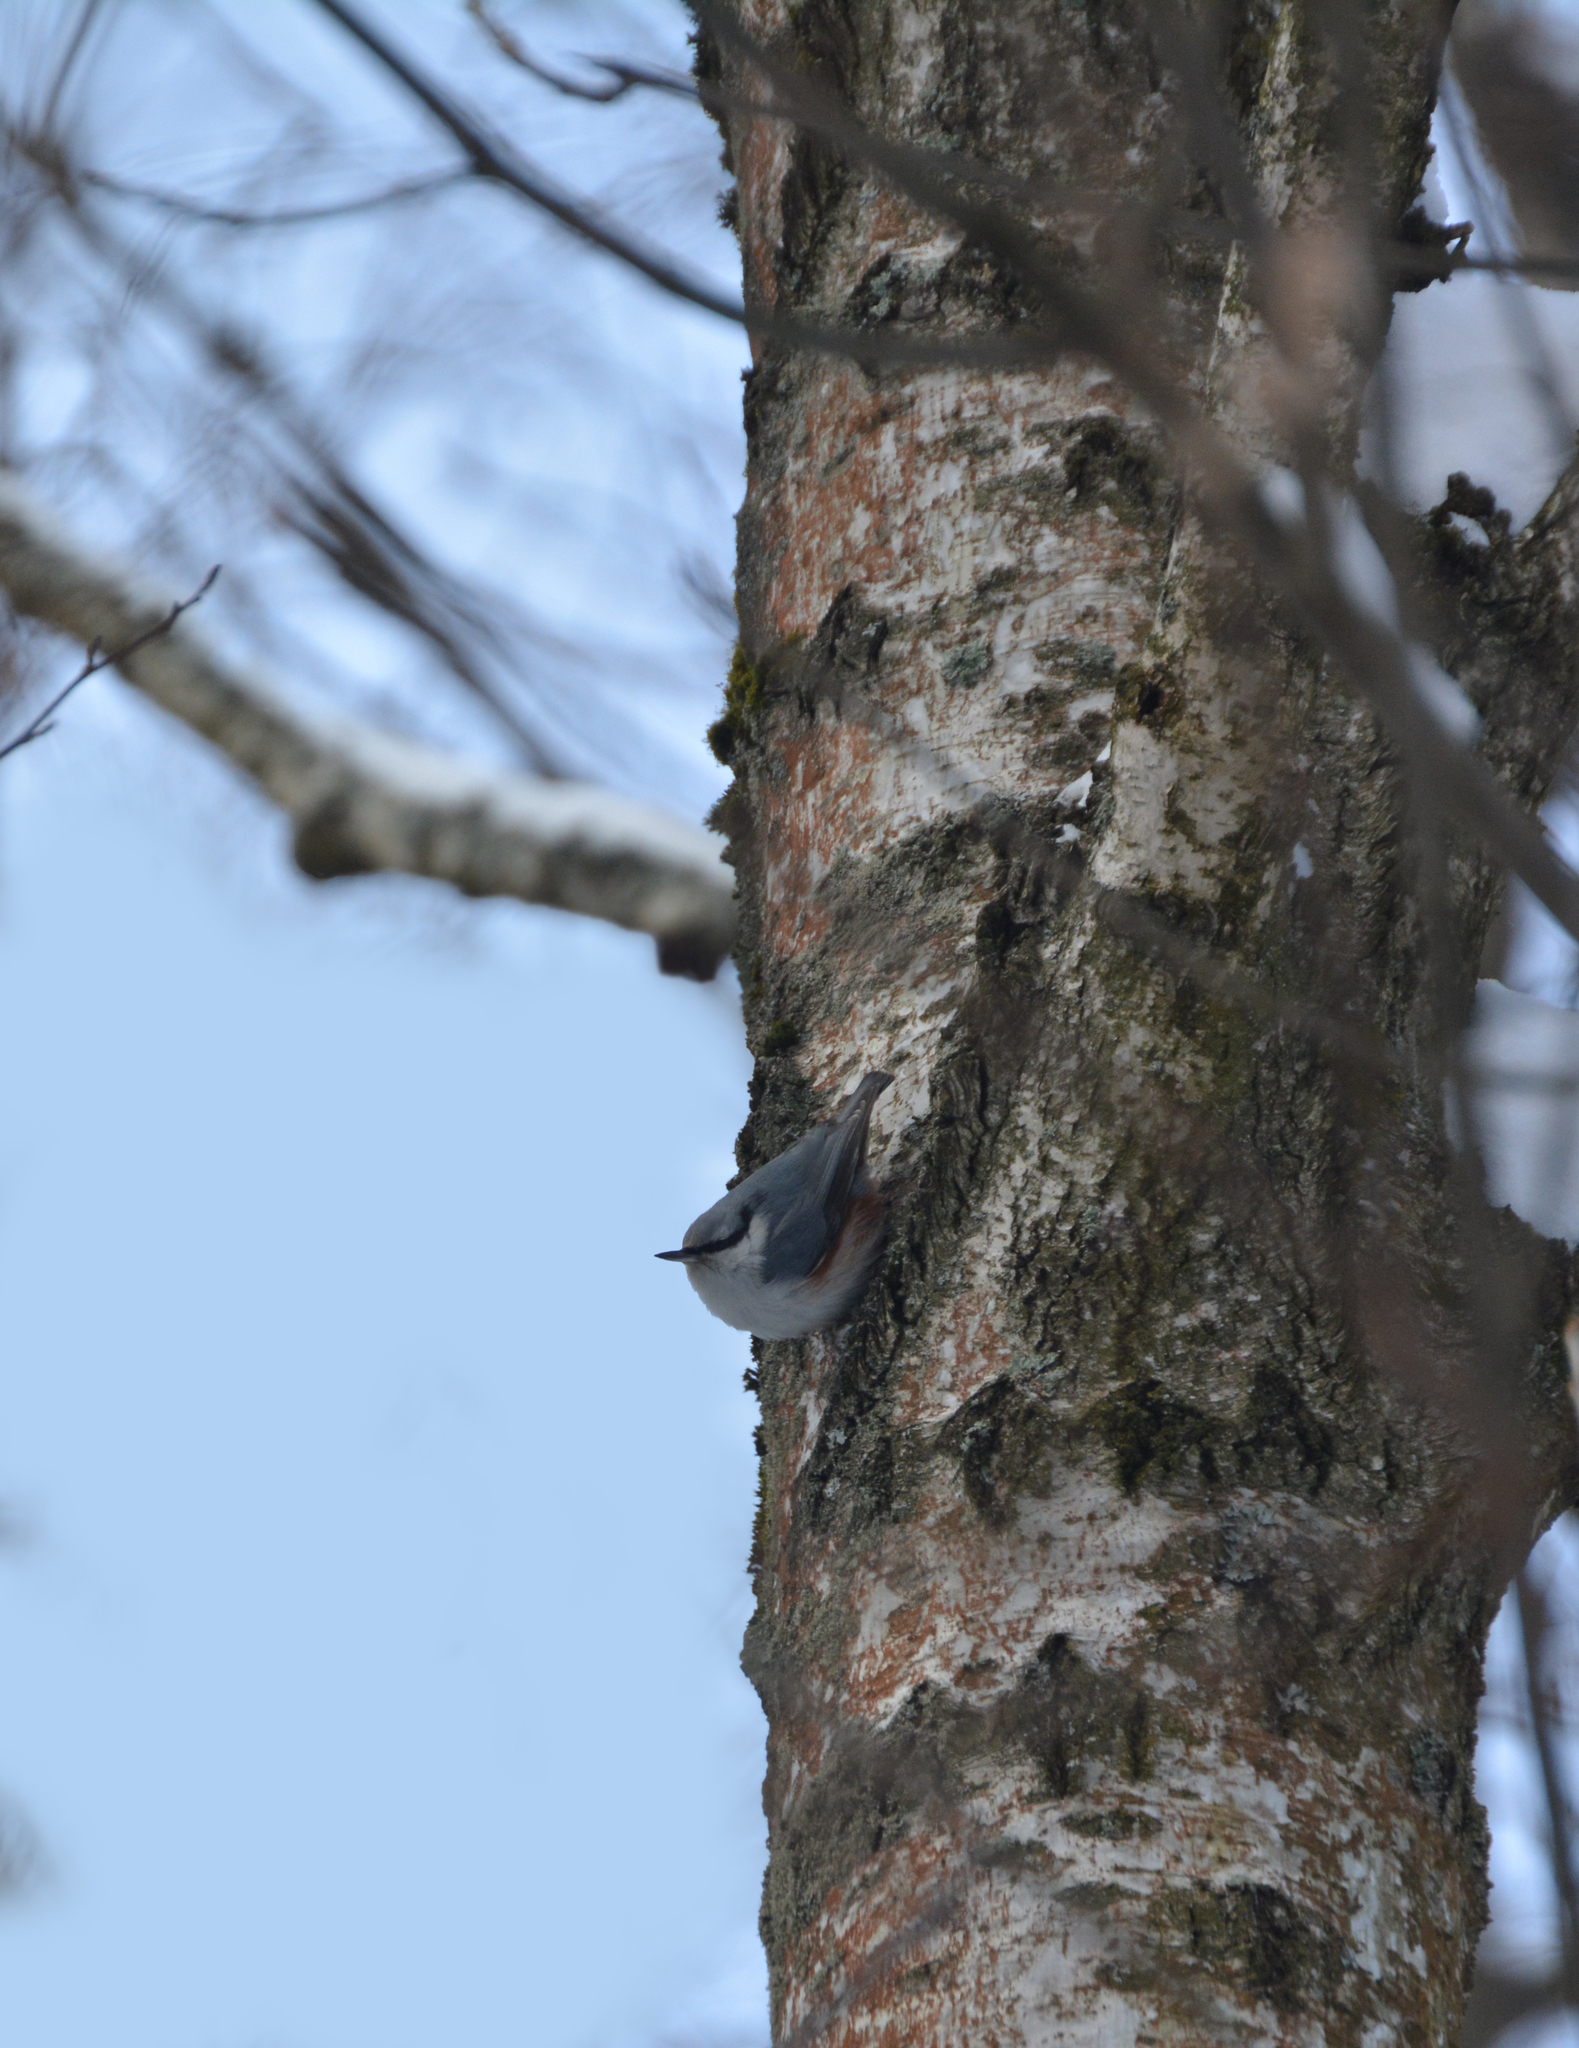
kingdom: Animalia
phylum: Chordata
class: Aves
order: Passeriformes
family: Sittidae
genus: Sitta
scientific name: Sitta europaea
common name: Eurasian nuthatch
